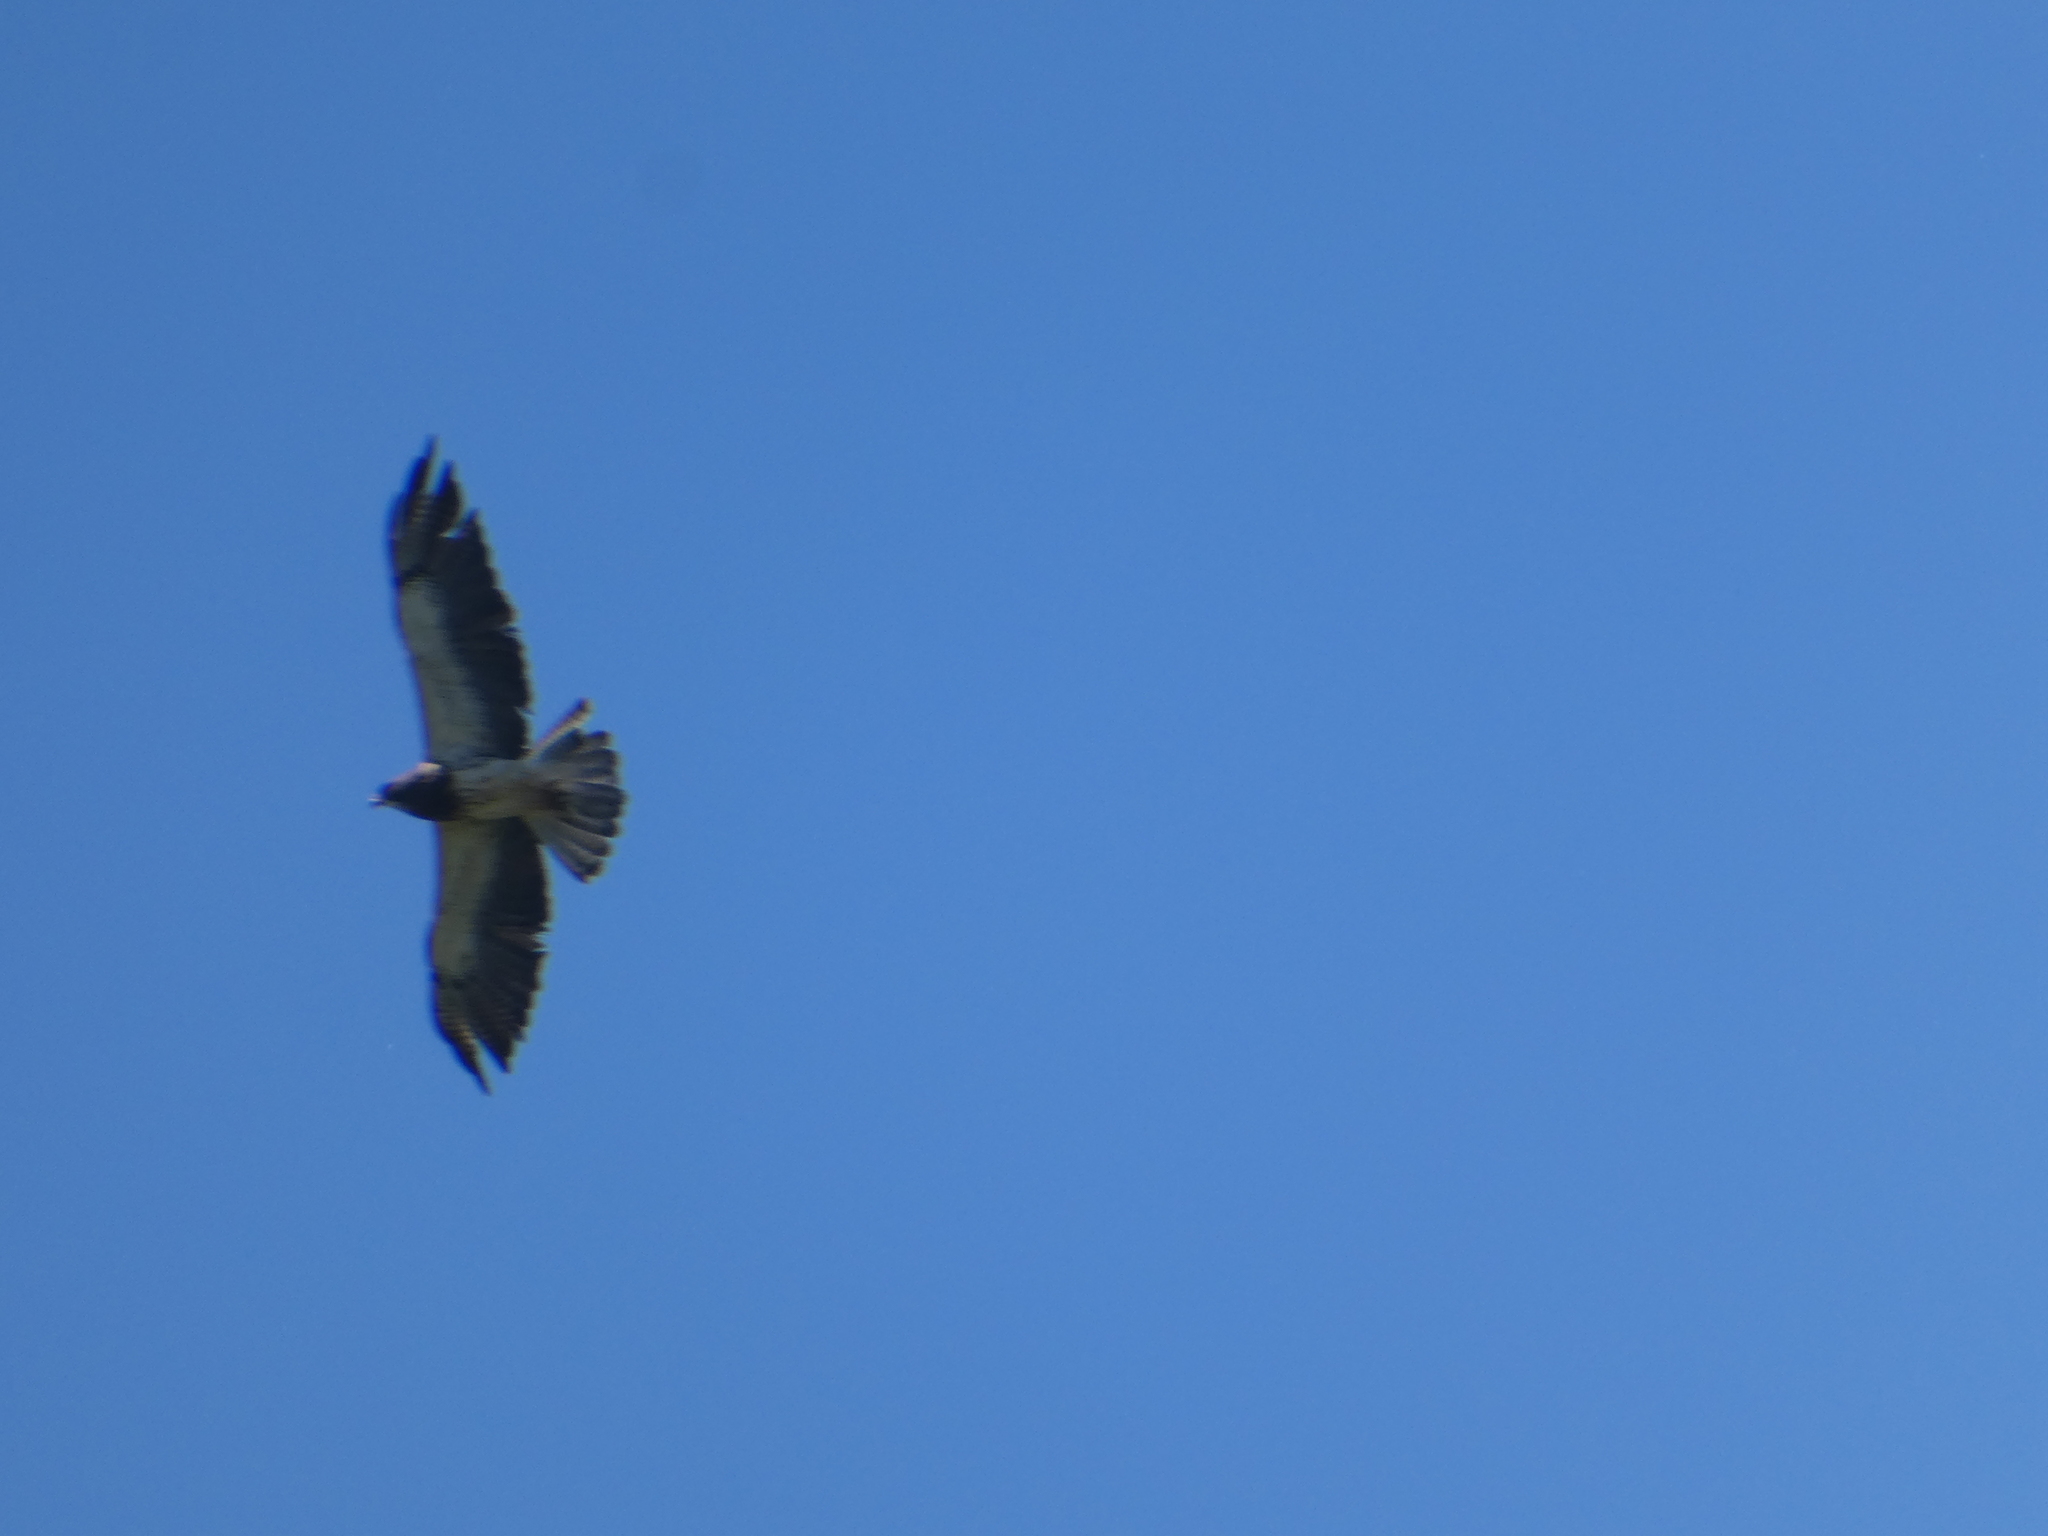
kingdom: Animalia
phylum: Chordata
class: Aves
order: Accipitriformes
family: Accipitridae
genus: Buteo
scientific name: Buteo swainsoni
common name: Swainson's hawk
